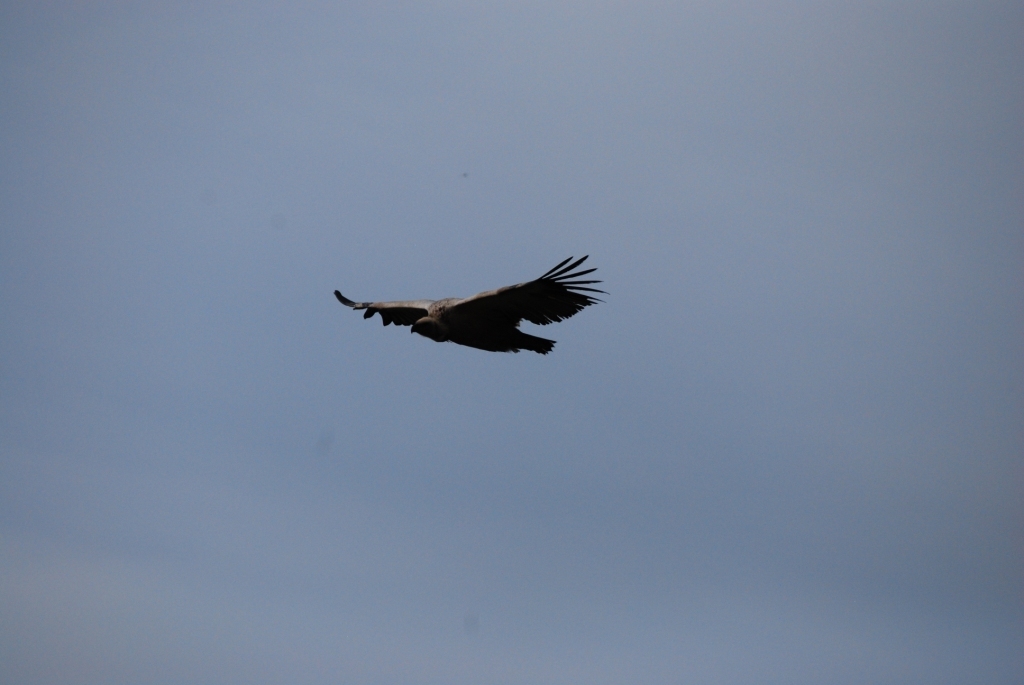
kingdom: Animalia
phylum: Chordata
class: Aves
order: Accipitriformes
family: Accipitridae
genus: Gyps
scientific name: Gyps coprotheres
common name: Cape vulture
